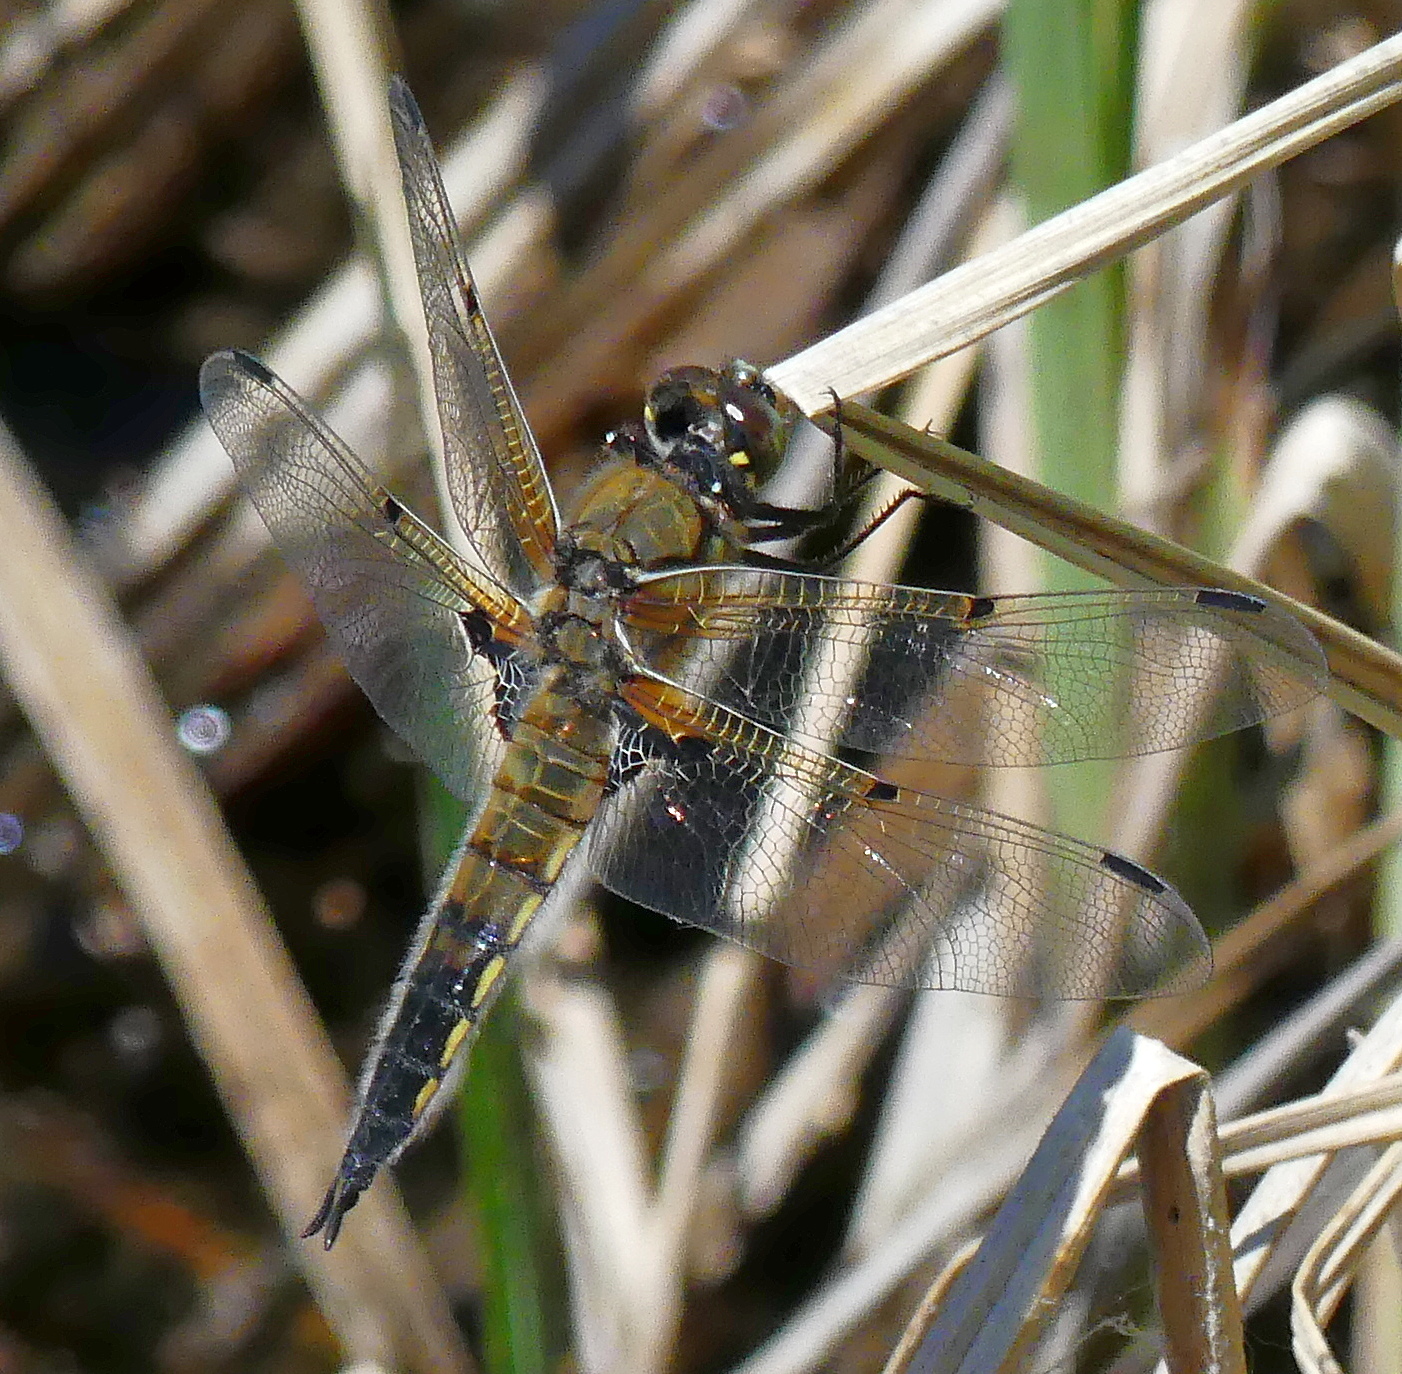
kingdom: Animalia
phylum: Arthropoda
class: Insecta
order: Odonata
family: Libellulidae
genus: Libellula
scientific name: Libellula quadrimaculata
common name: Four-spotted chaser
